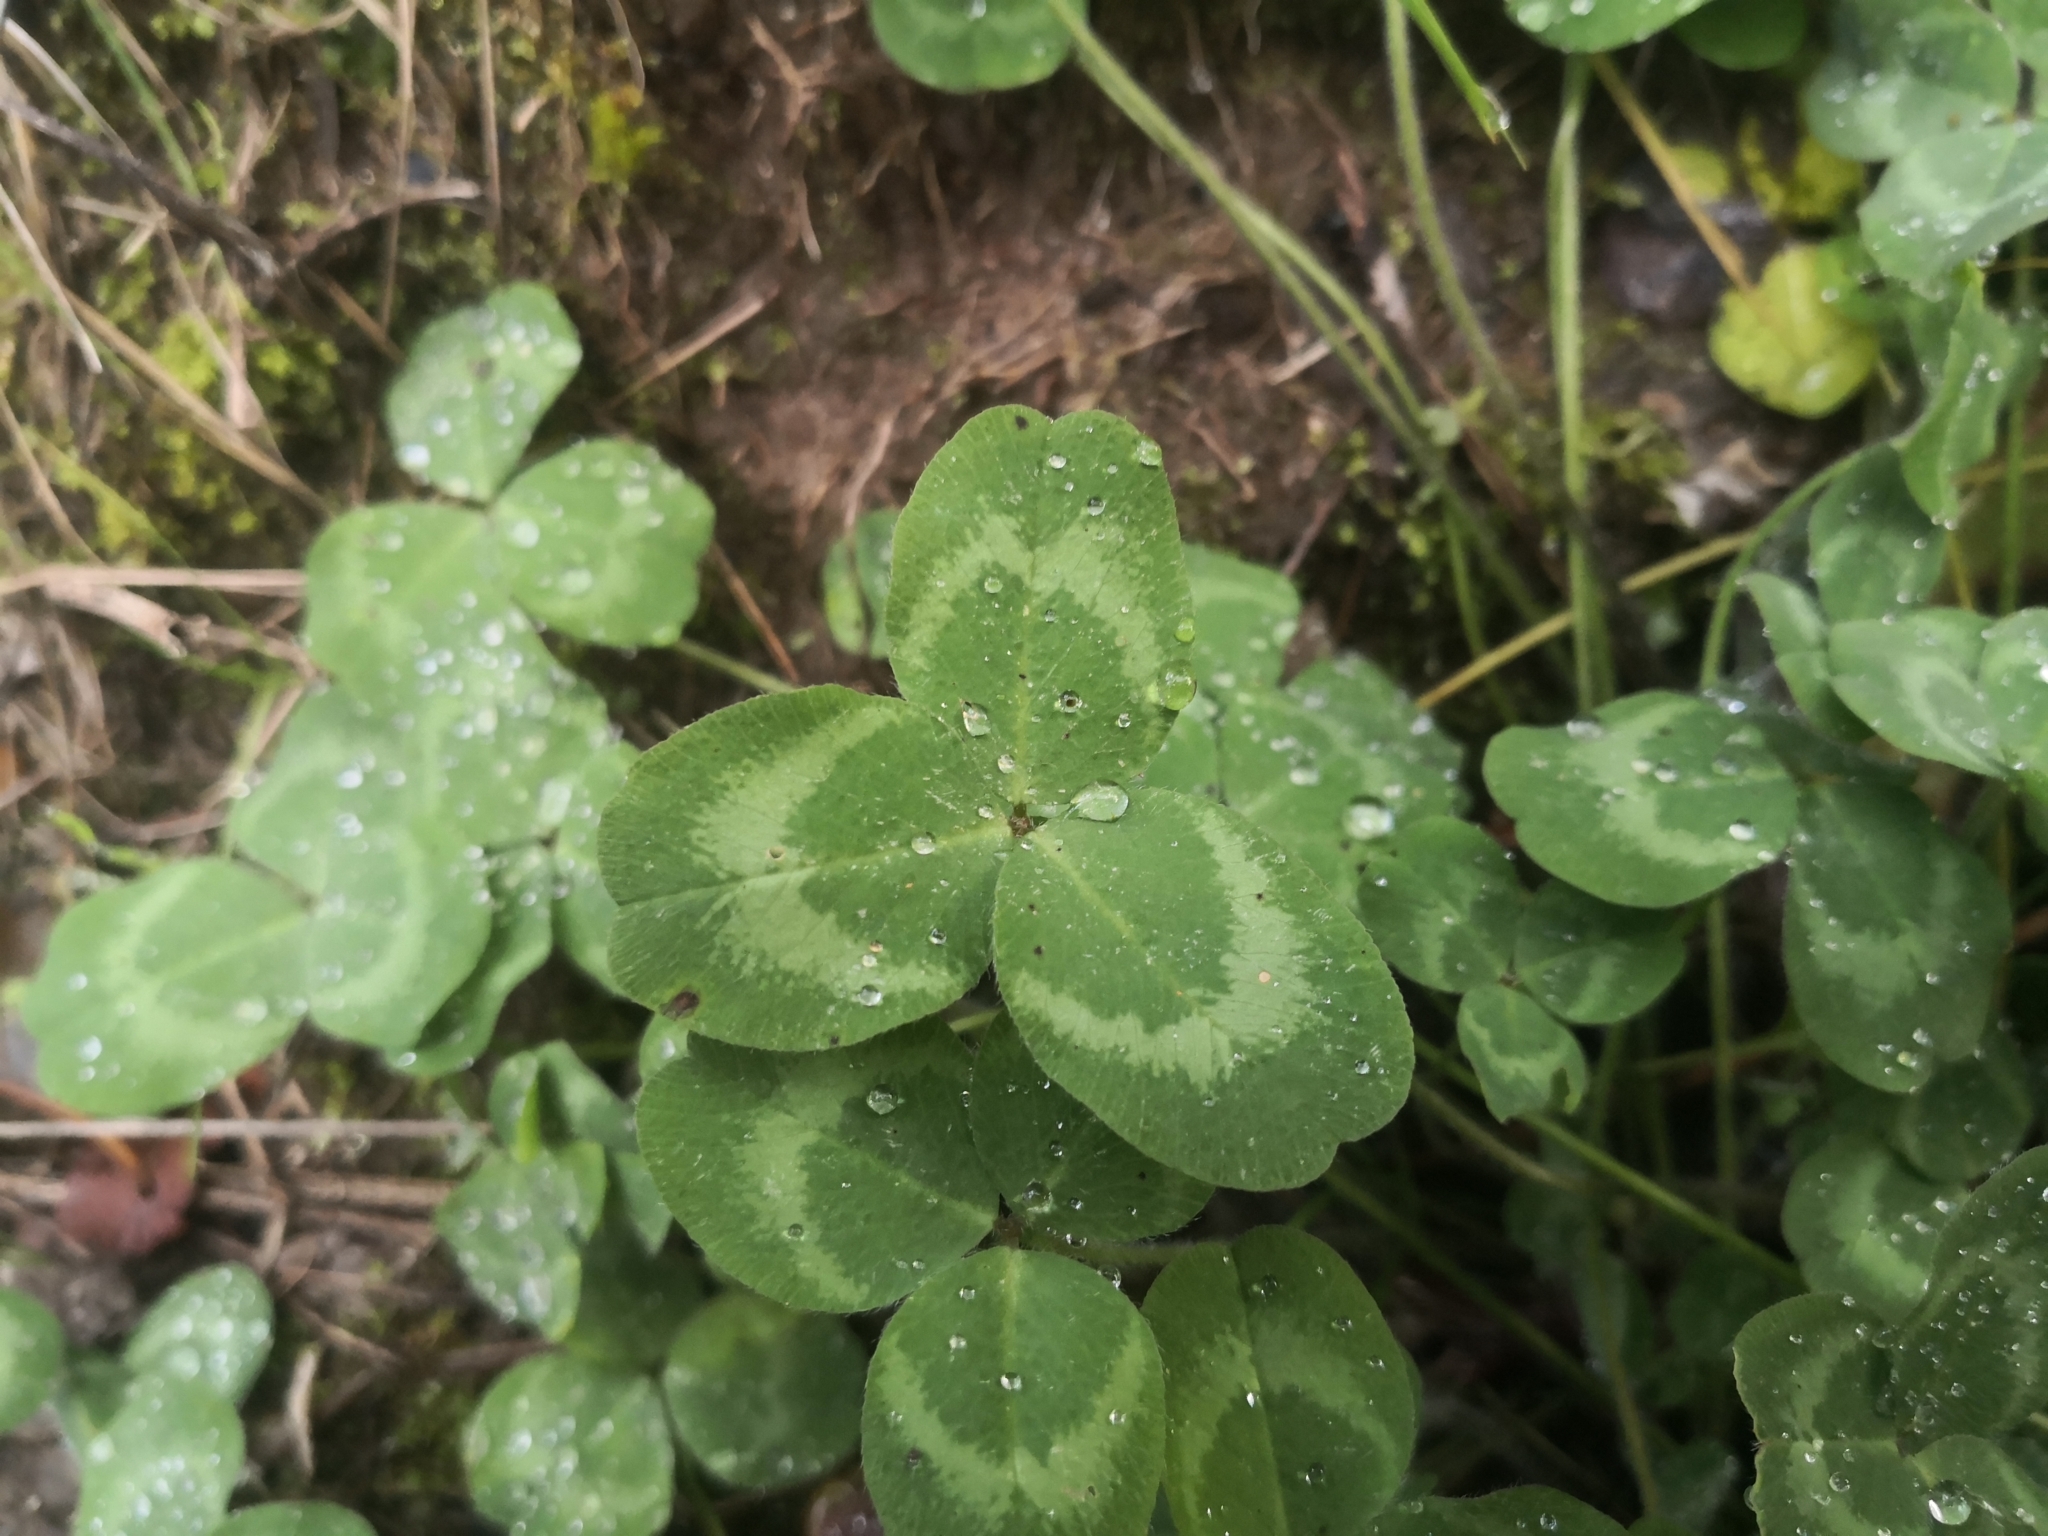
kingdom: Plantae
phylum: Tracheophyta
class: Magnoliopsida
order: Fabales
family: Fabaceae
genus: Trifolium
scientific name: Trifolium pratense
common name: Red clover
